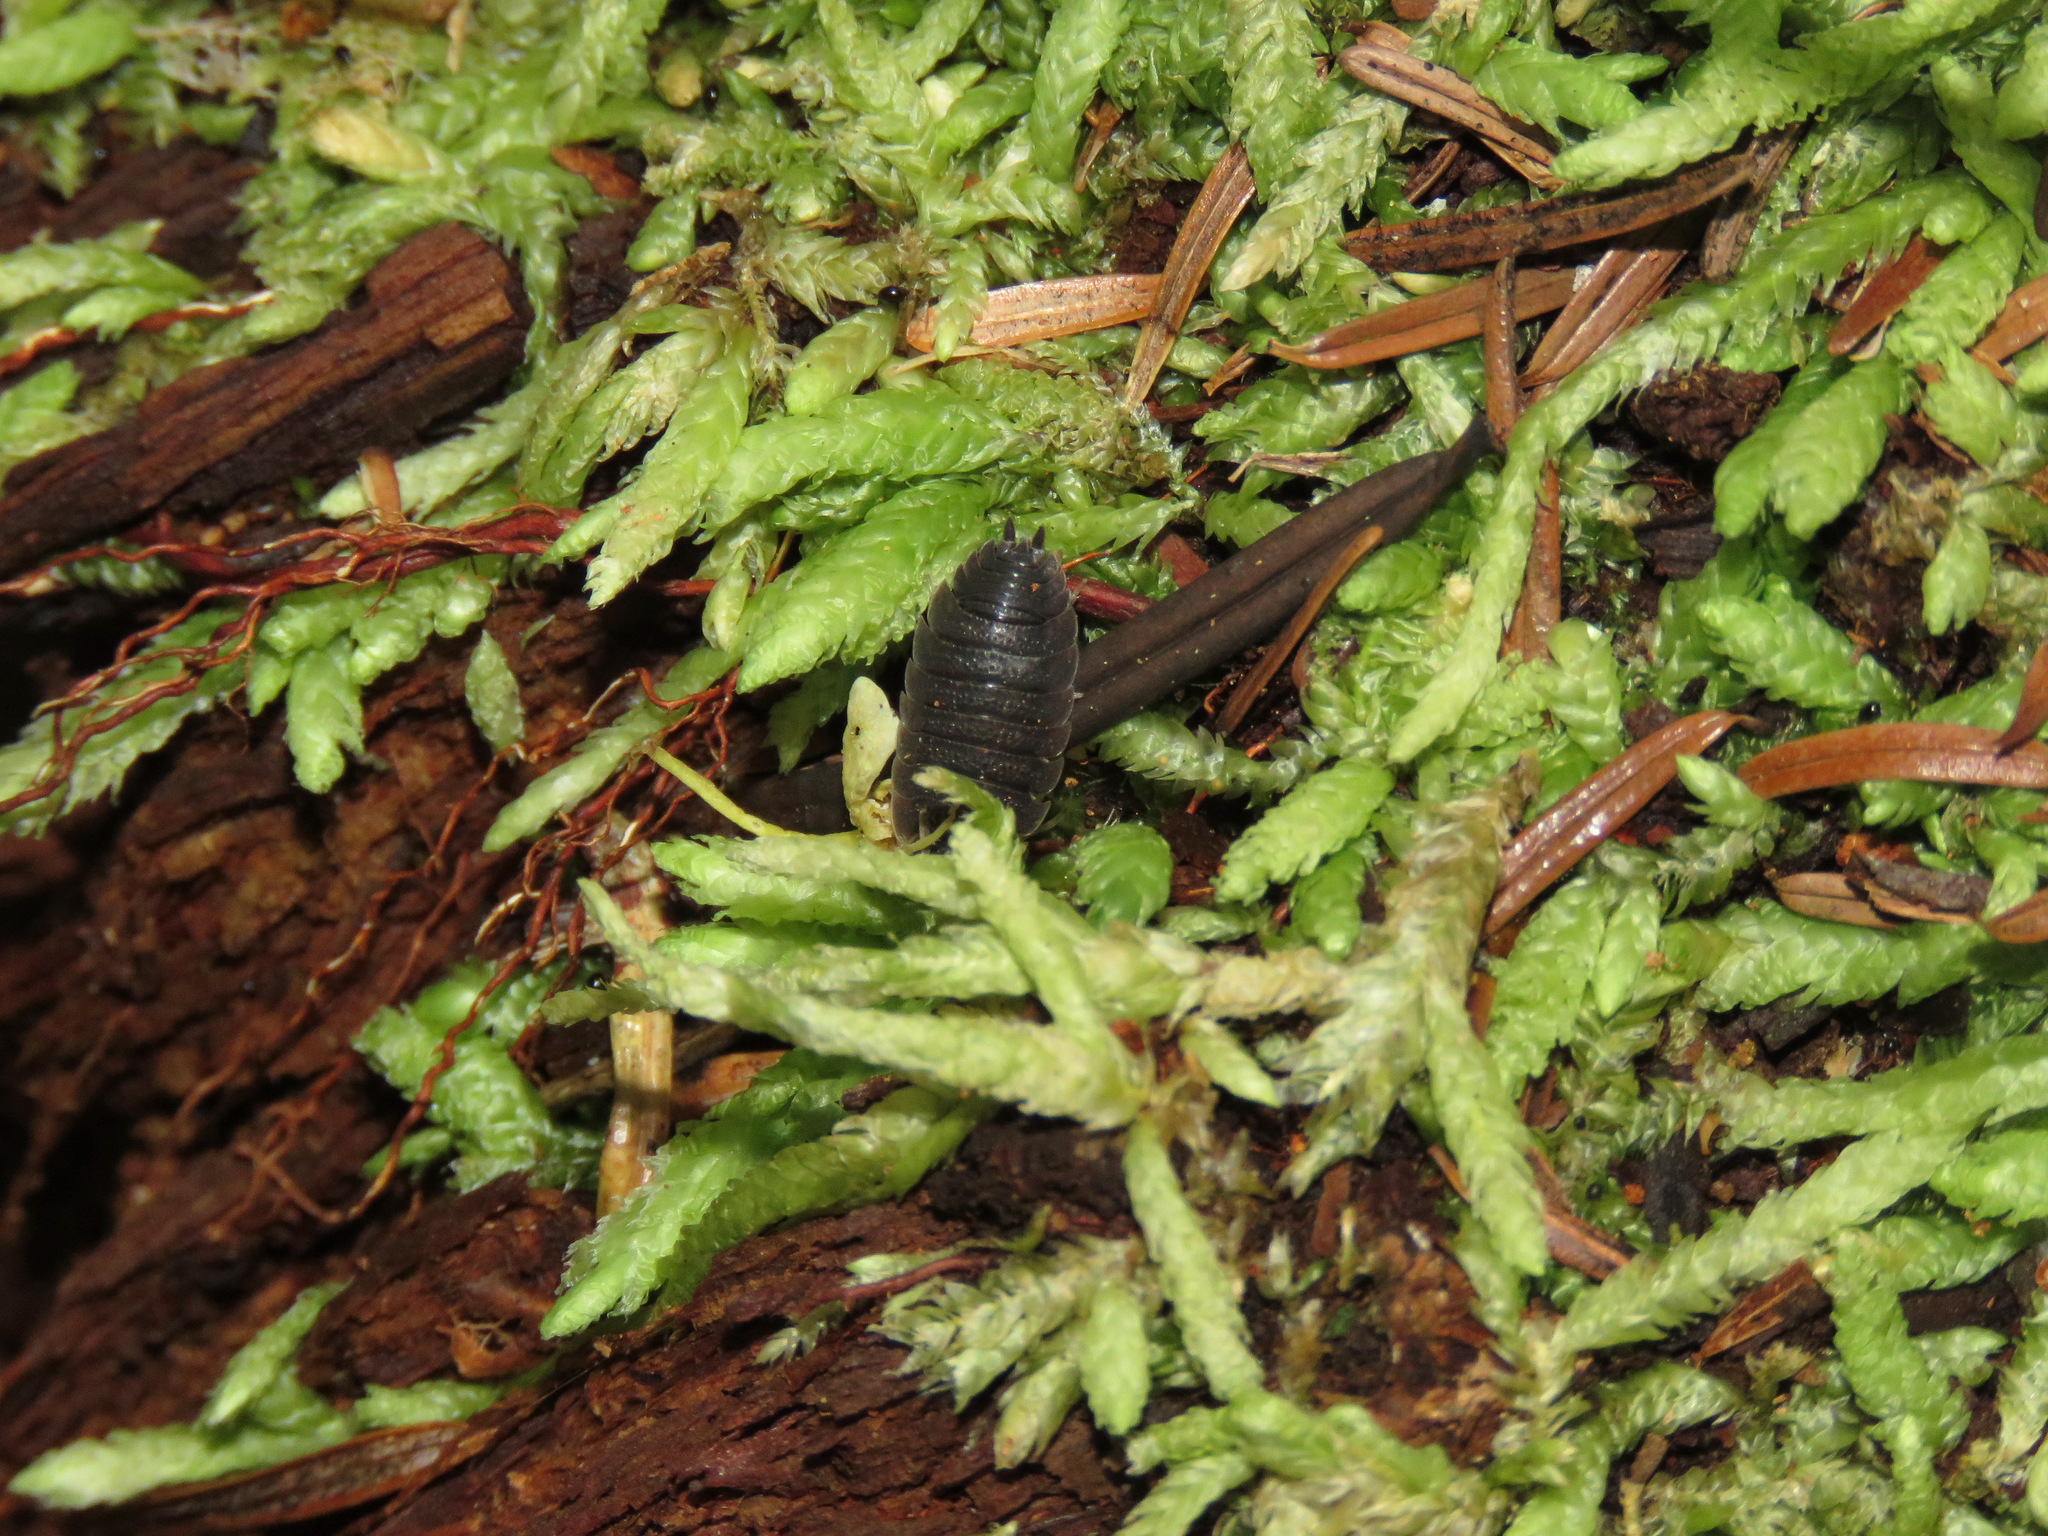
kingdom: Animalia
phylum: Arthropoda
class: Malacostraca
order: Isopoda
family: Porcellionidae
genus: Porcellio
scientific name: Porcellio scaber
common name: Common rough woodlouse
